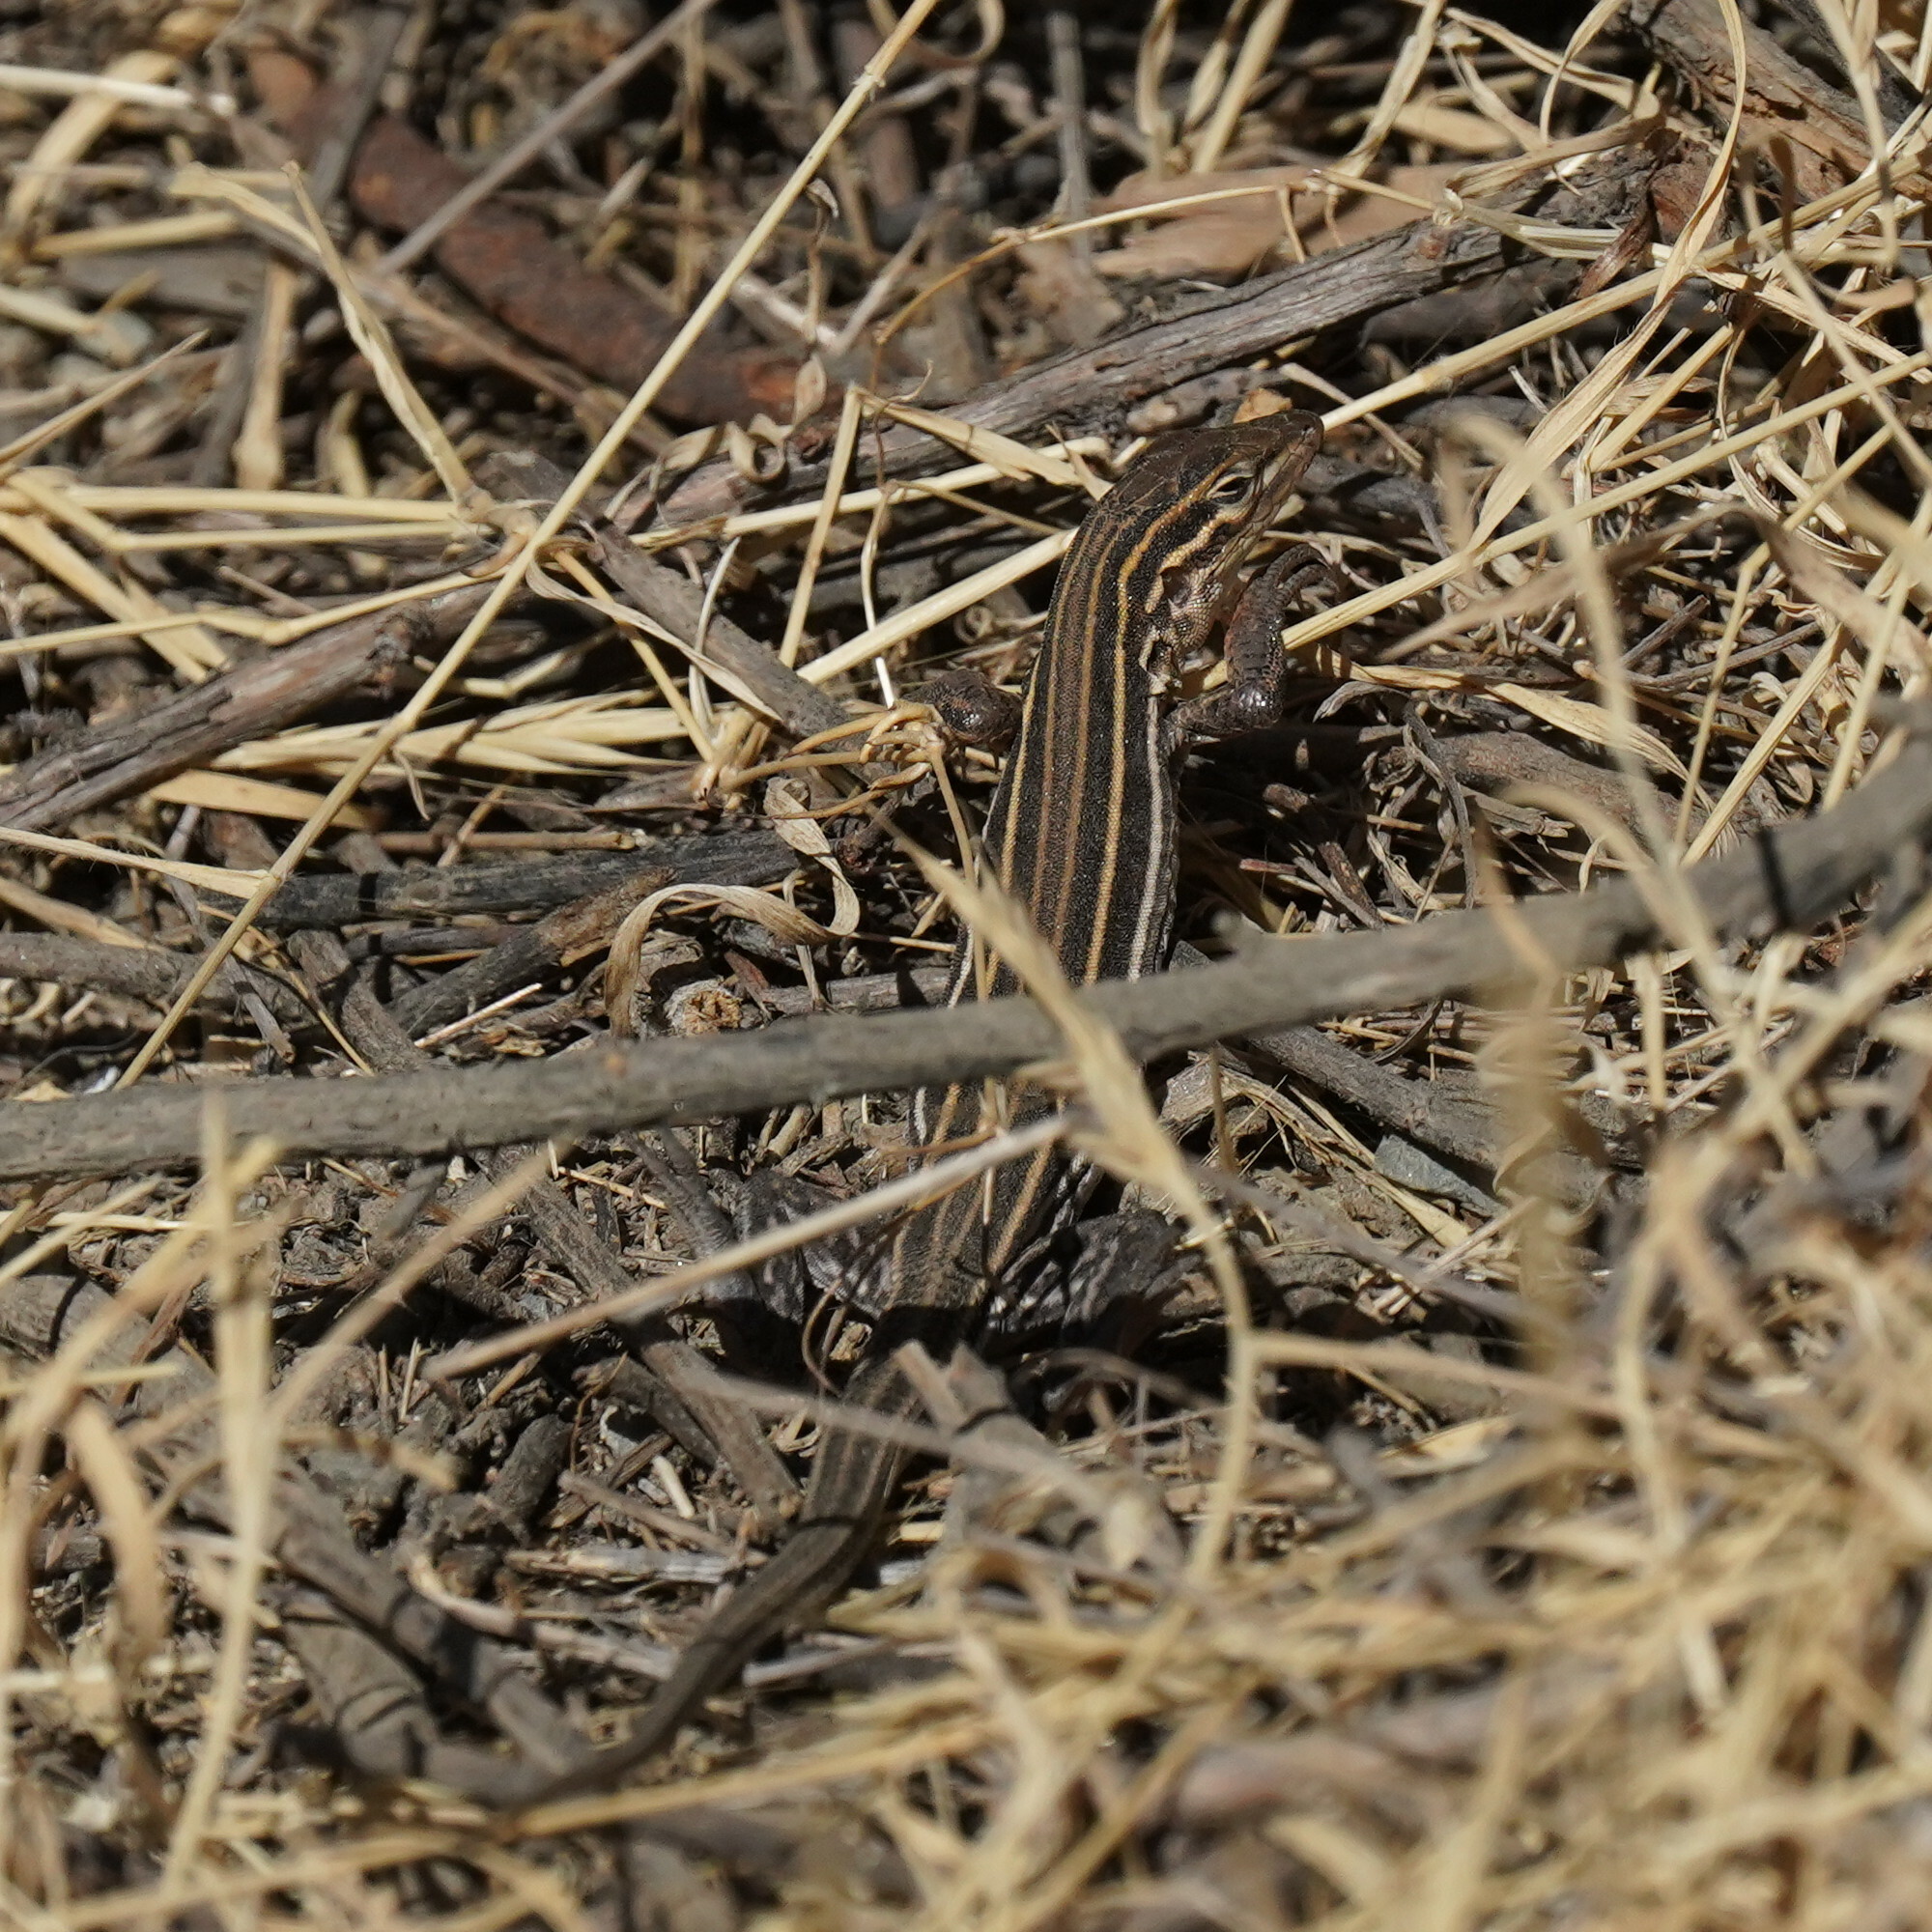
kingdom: Animalia
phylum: Chordata
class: Squamata
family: Teiidae
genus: Aspidoscelis
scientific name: Aspidoscelis hyperythrus
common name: Orange-throated race-runner
